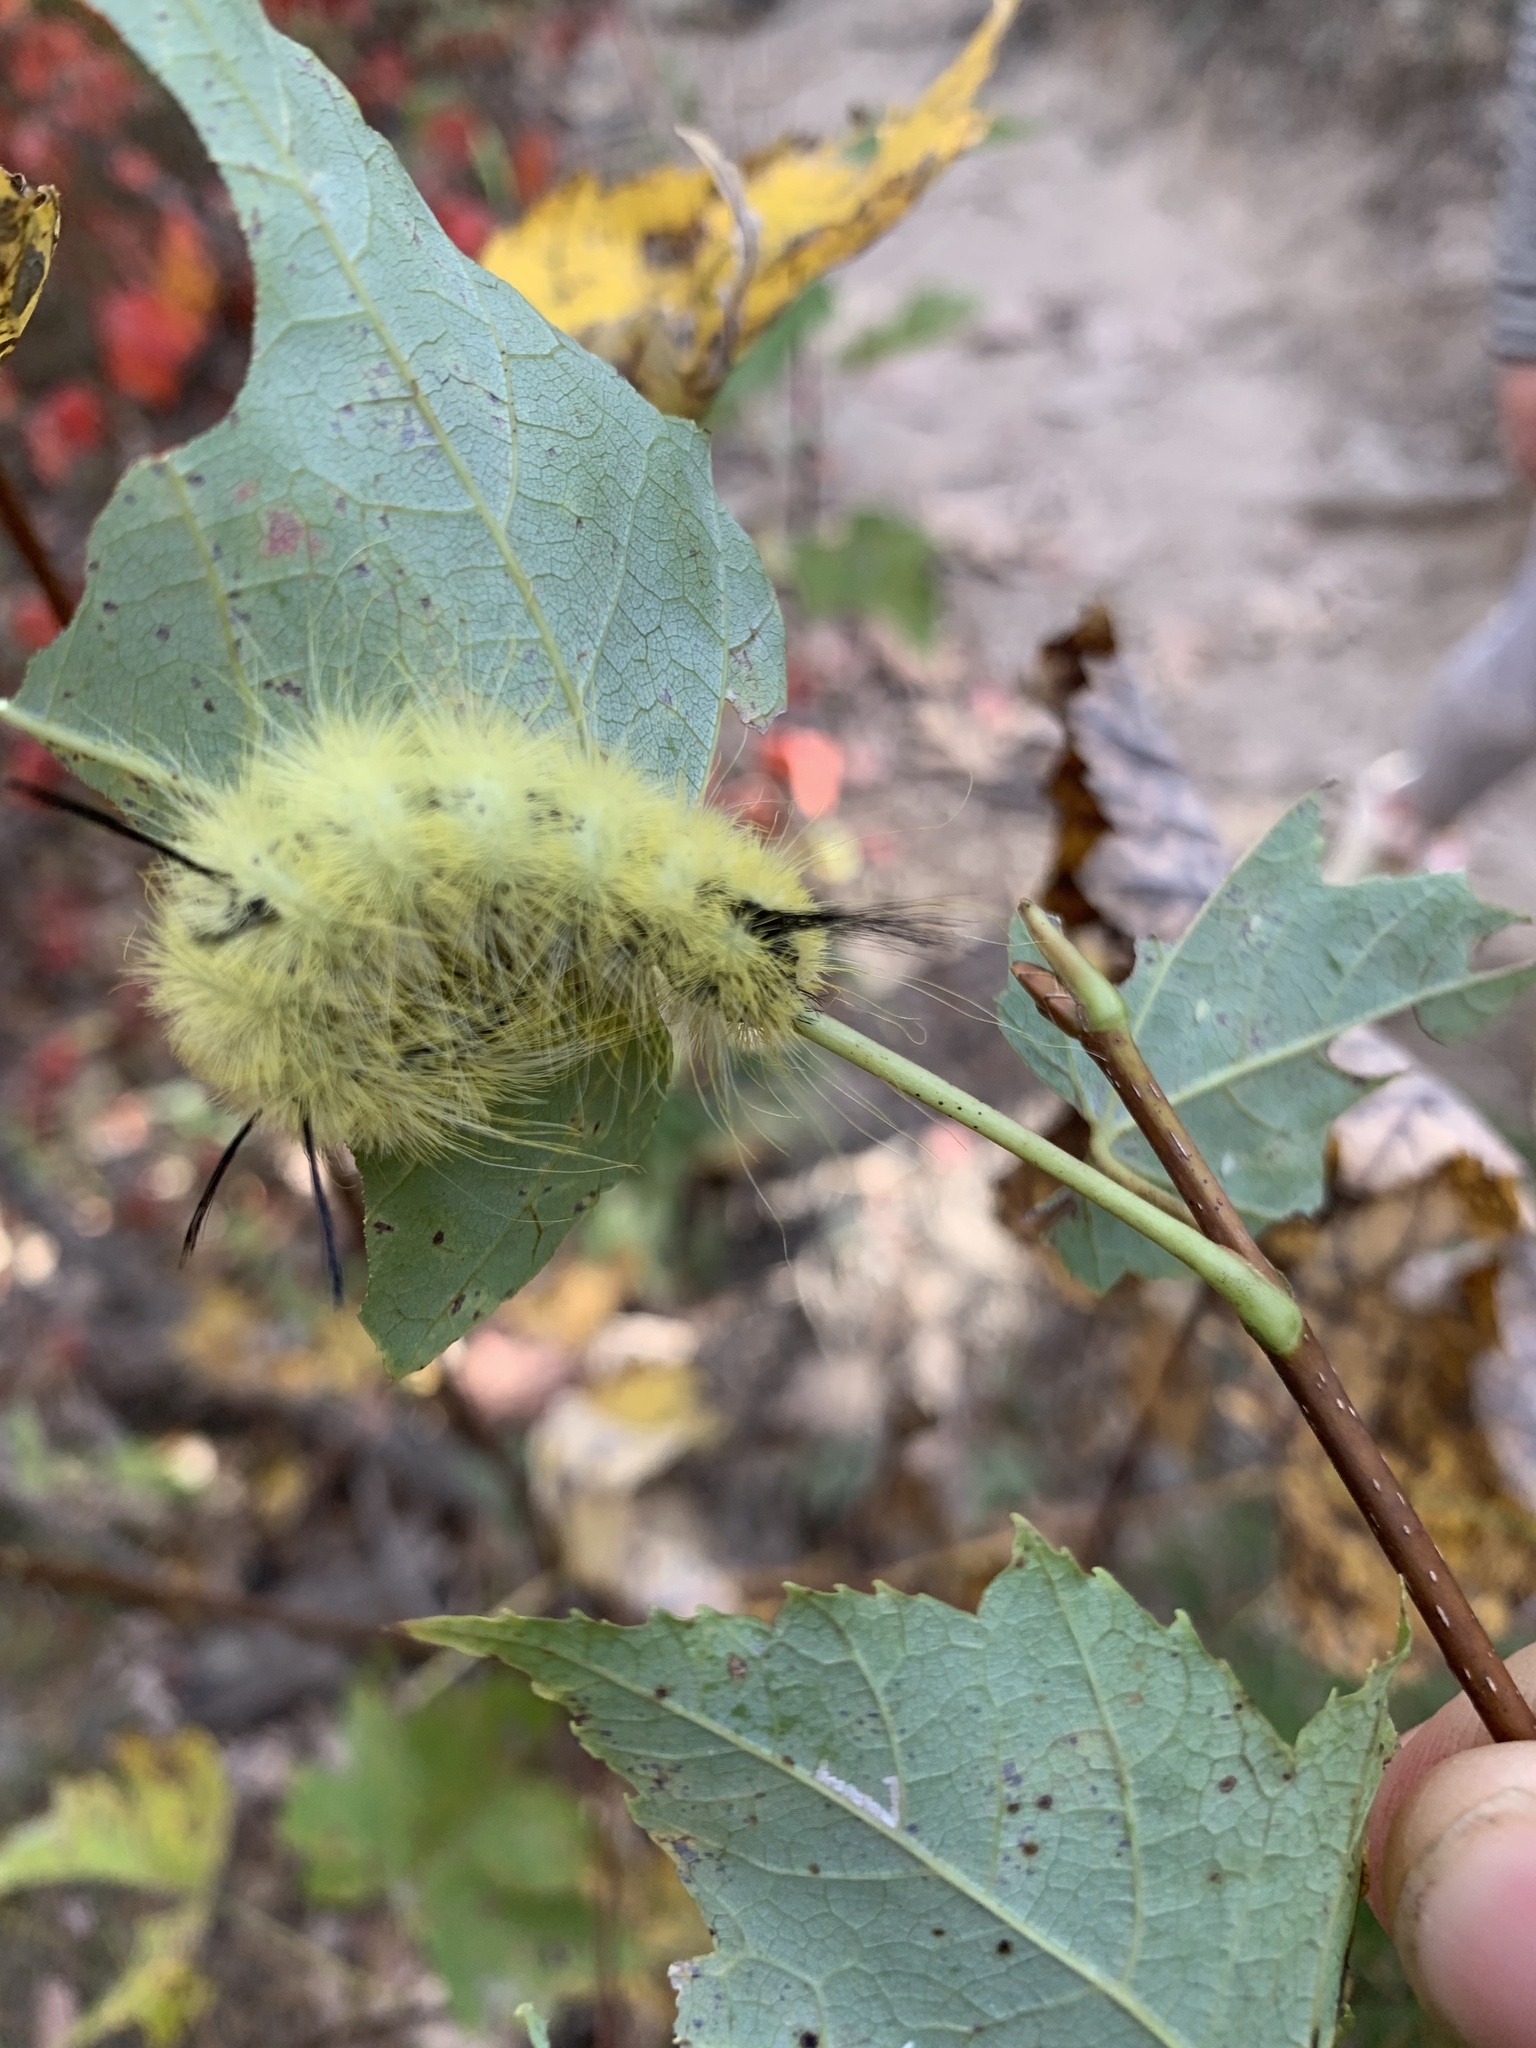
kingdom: Animalia
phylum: Arthropoda
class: Insecta
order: Lepidoptera
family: Noctuidae
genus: Acronicta
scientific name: Acronicta americana
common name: American dagger
